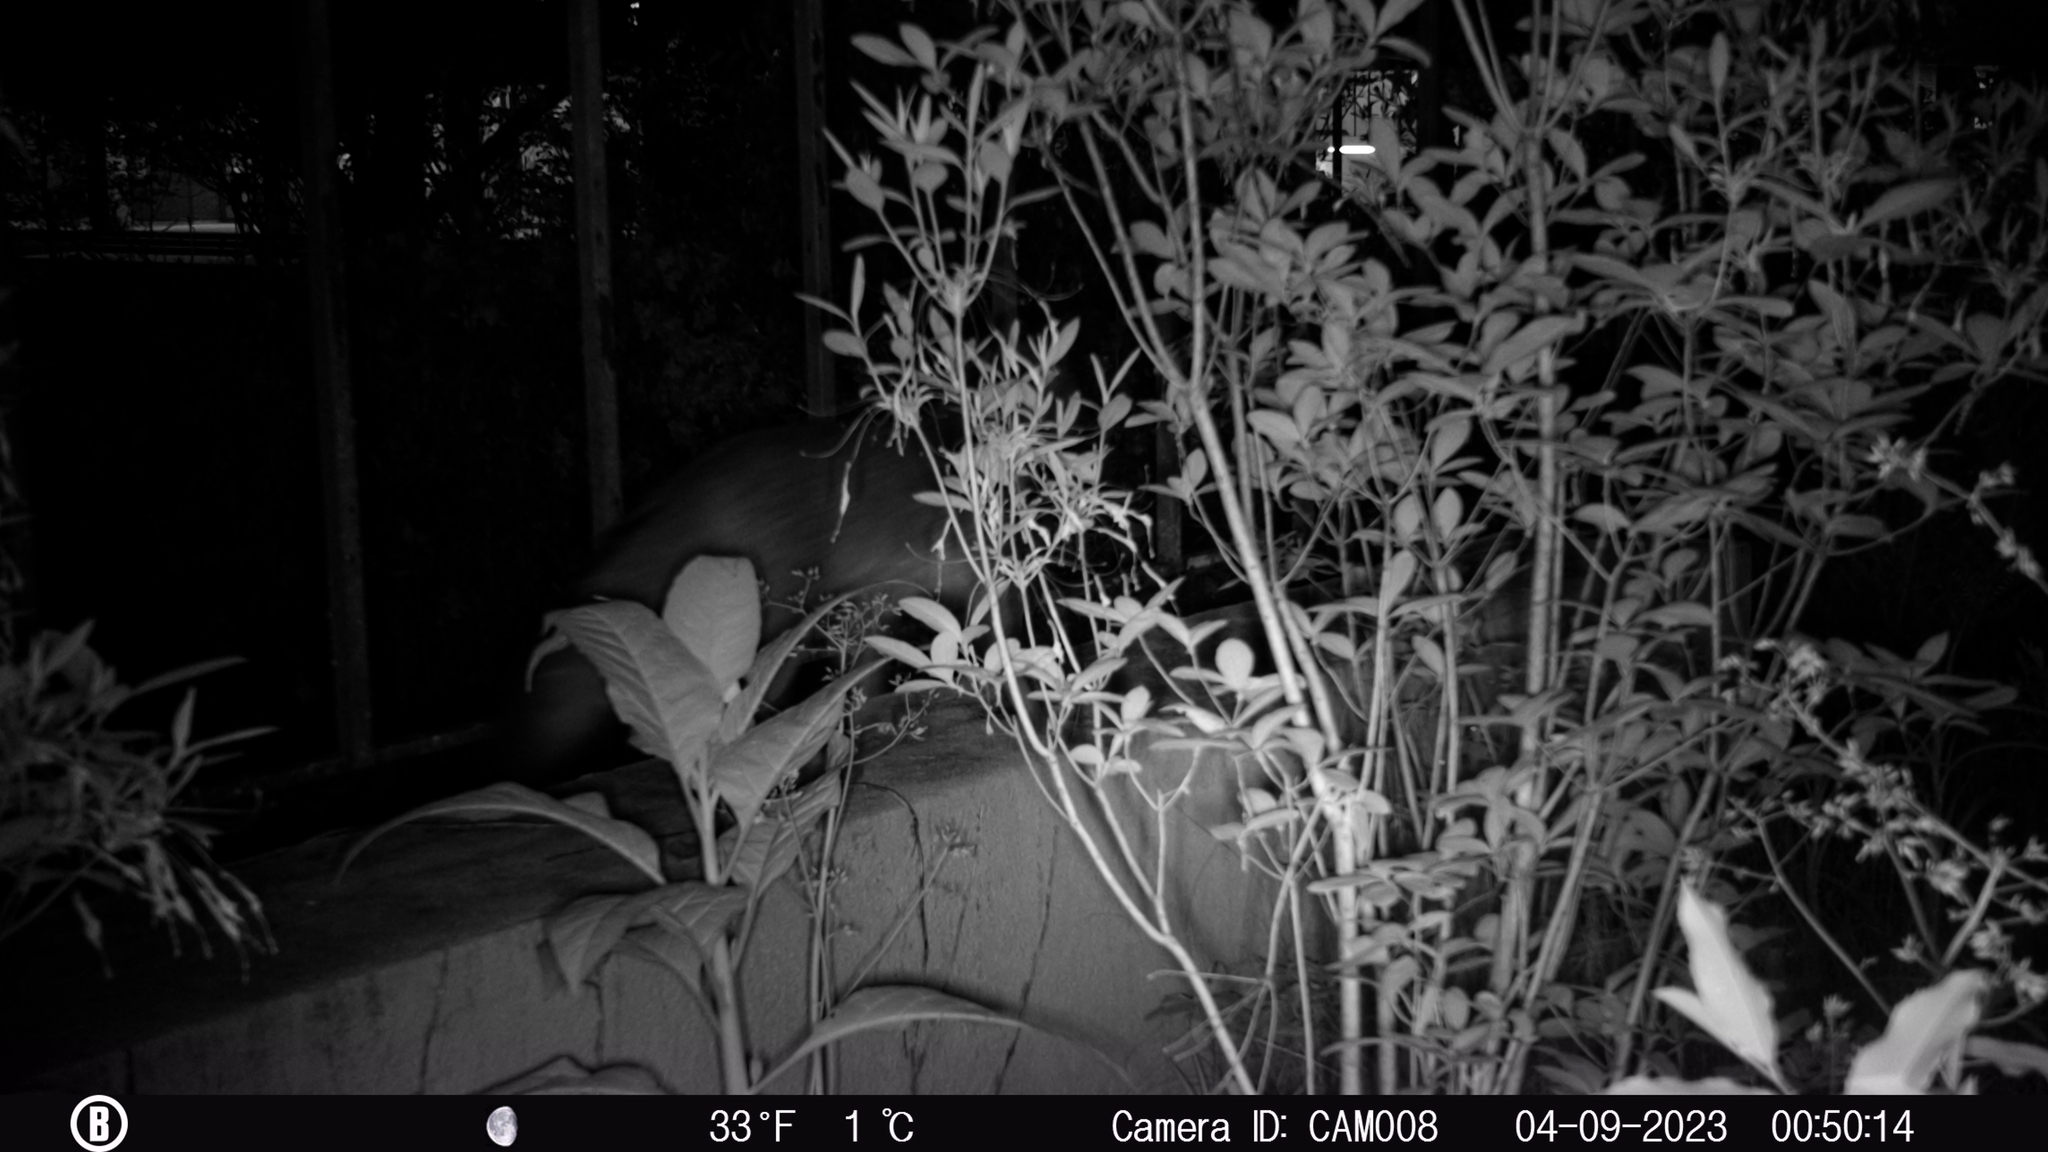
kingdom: Animalia
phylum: Chordata
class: Mammalia
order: Carnivora
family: Canidae
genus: Urocyon
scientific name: Urocyon cinereoargenteus
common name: Gray fox
